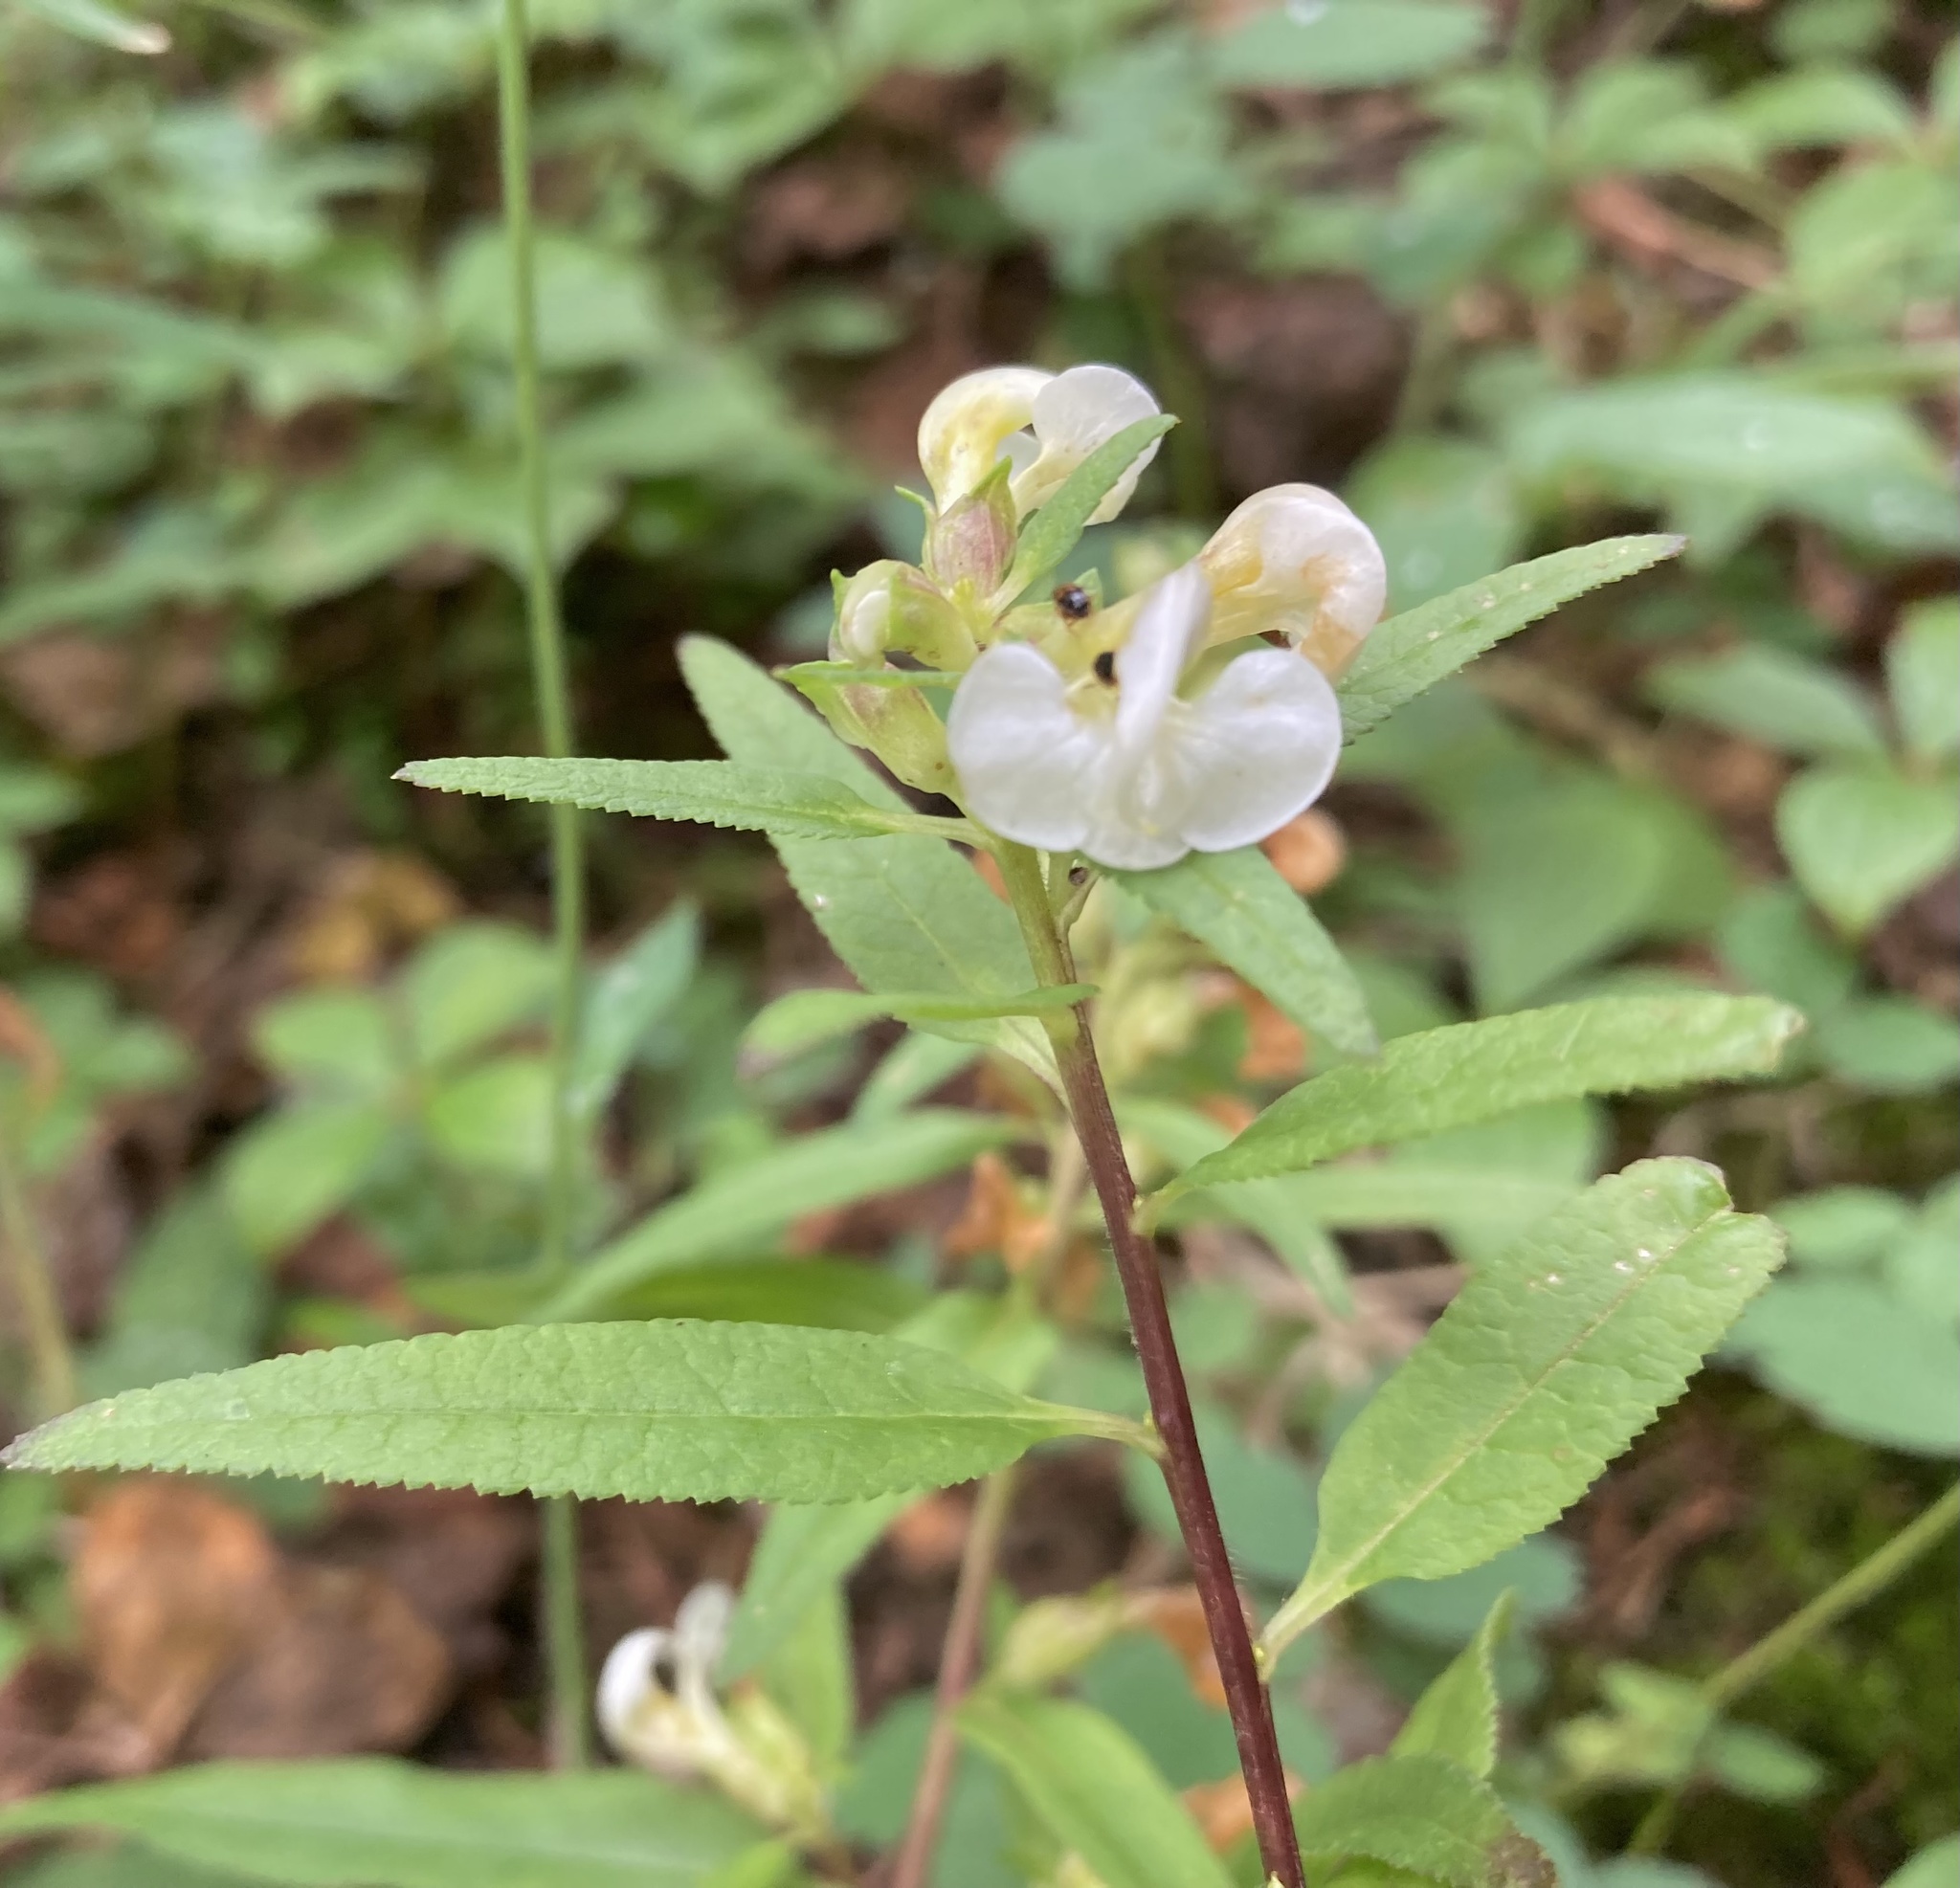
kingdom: Plantae
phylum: Tracheophyta
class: Magnoliopsida
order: Lamiales
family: Orobanchaceae
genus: Pedicularis
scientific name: Pedicularis racemosa
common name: Leafy lousewort
